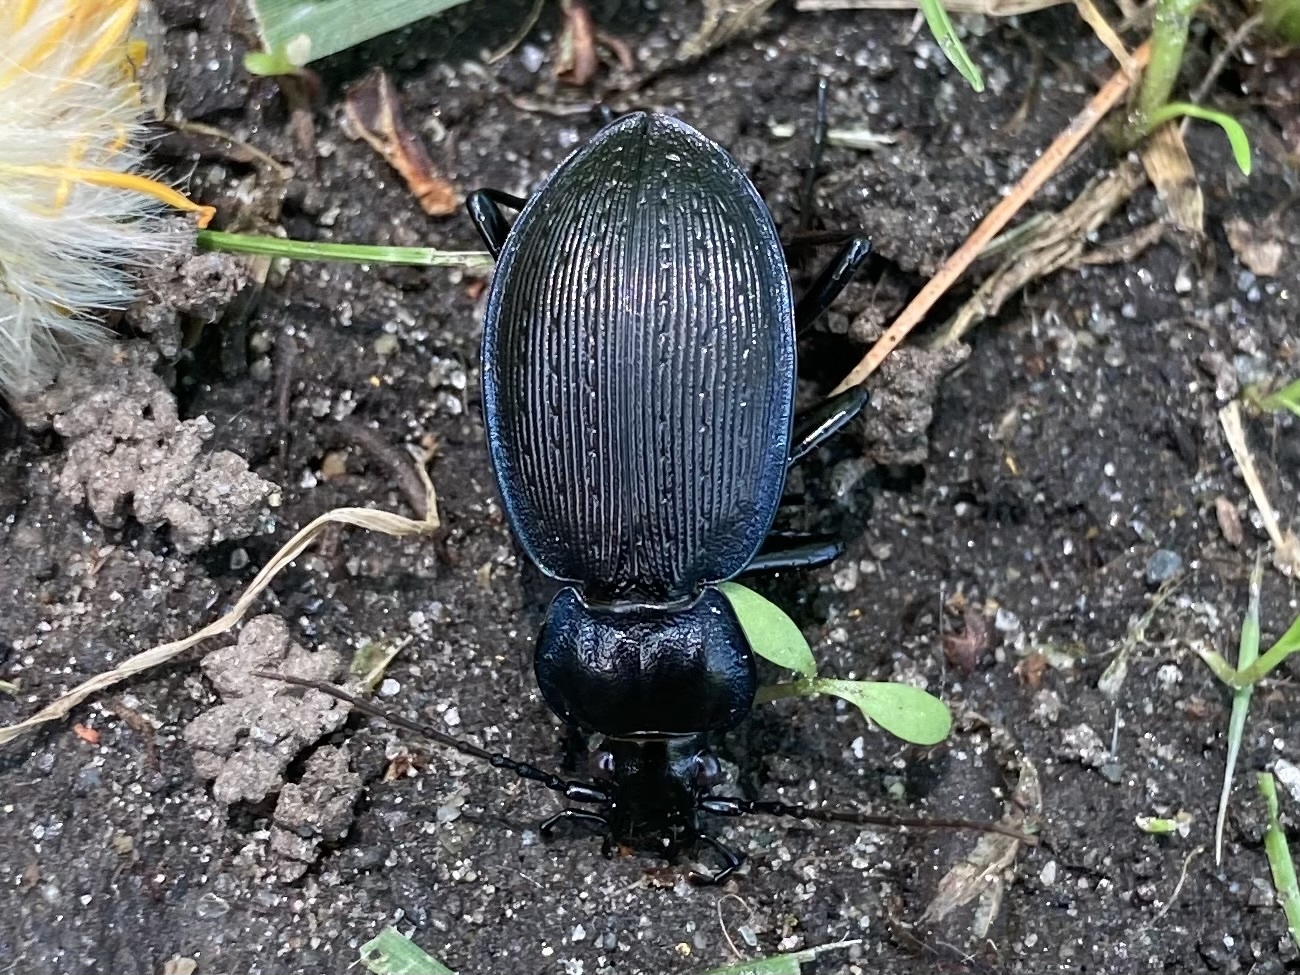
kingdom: Animalia
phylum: Arthropoda
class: Insecta
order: Coleoptera
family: Carabidae
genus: Carabus
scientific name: Carabus goryi
